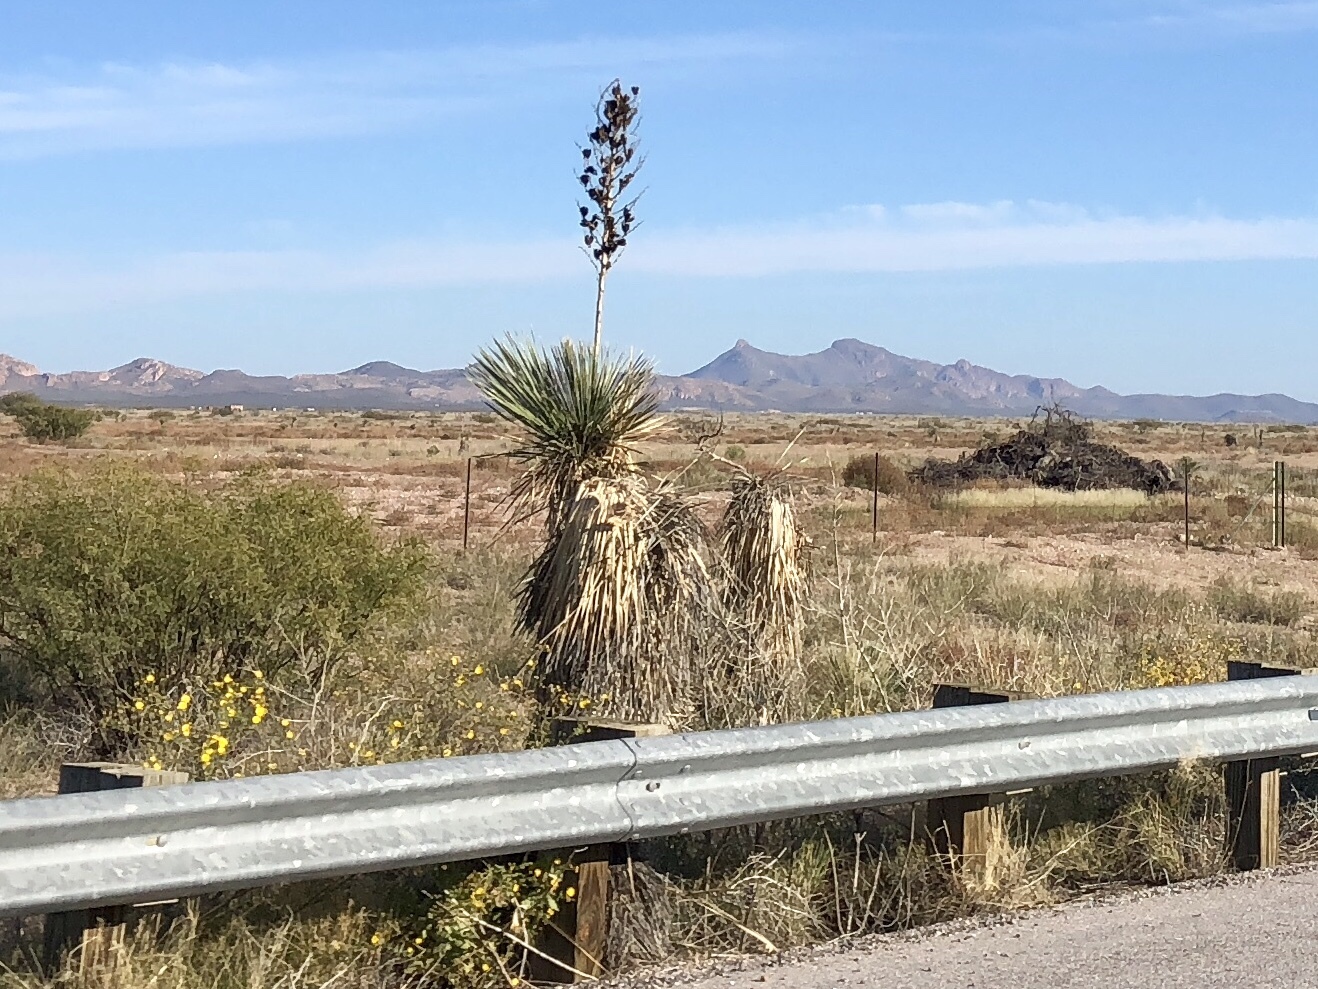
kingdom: Plantae
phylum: Tracheophyta
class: Liliopsida
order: Asparagales
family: Asparagaceae
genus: Yucca
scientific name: Yucca elata
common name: Palmella
